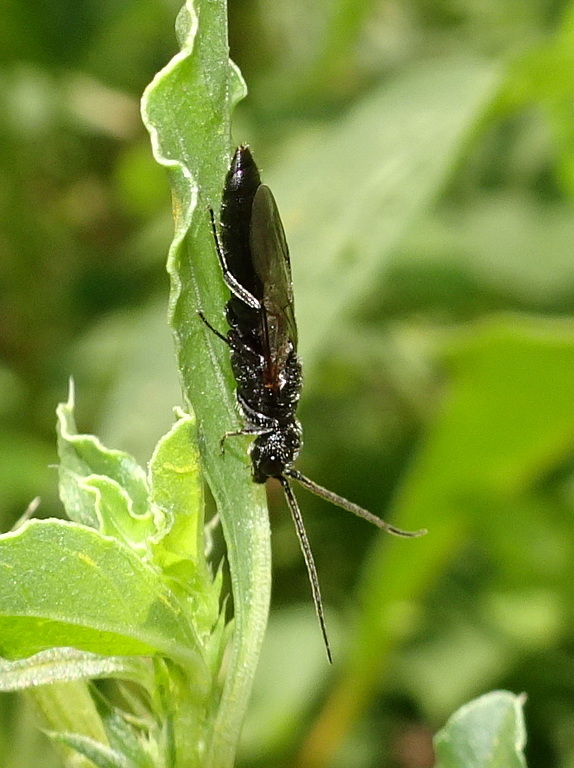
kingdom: Animalia
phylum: Arthropoda
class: Insecta
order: Hymenoptera
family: Bethylidae
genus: Pristepyris
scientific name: Pristepyris
